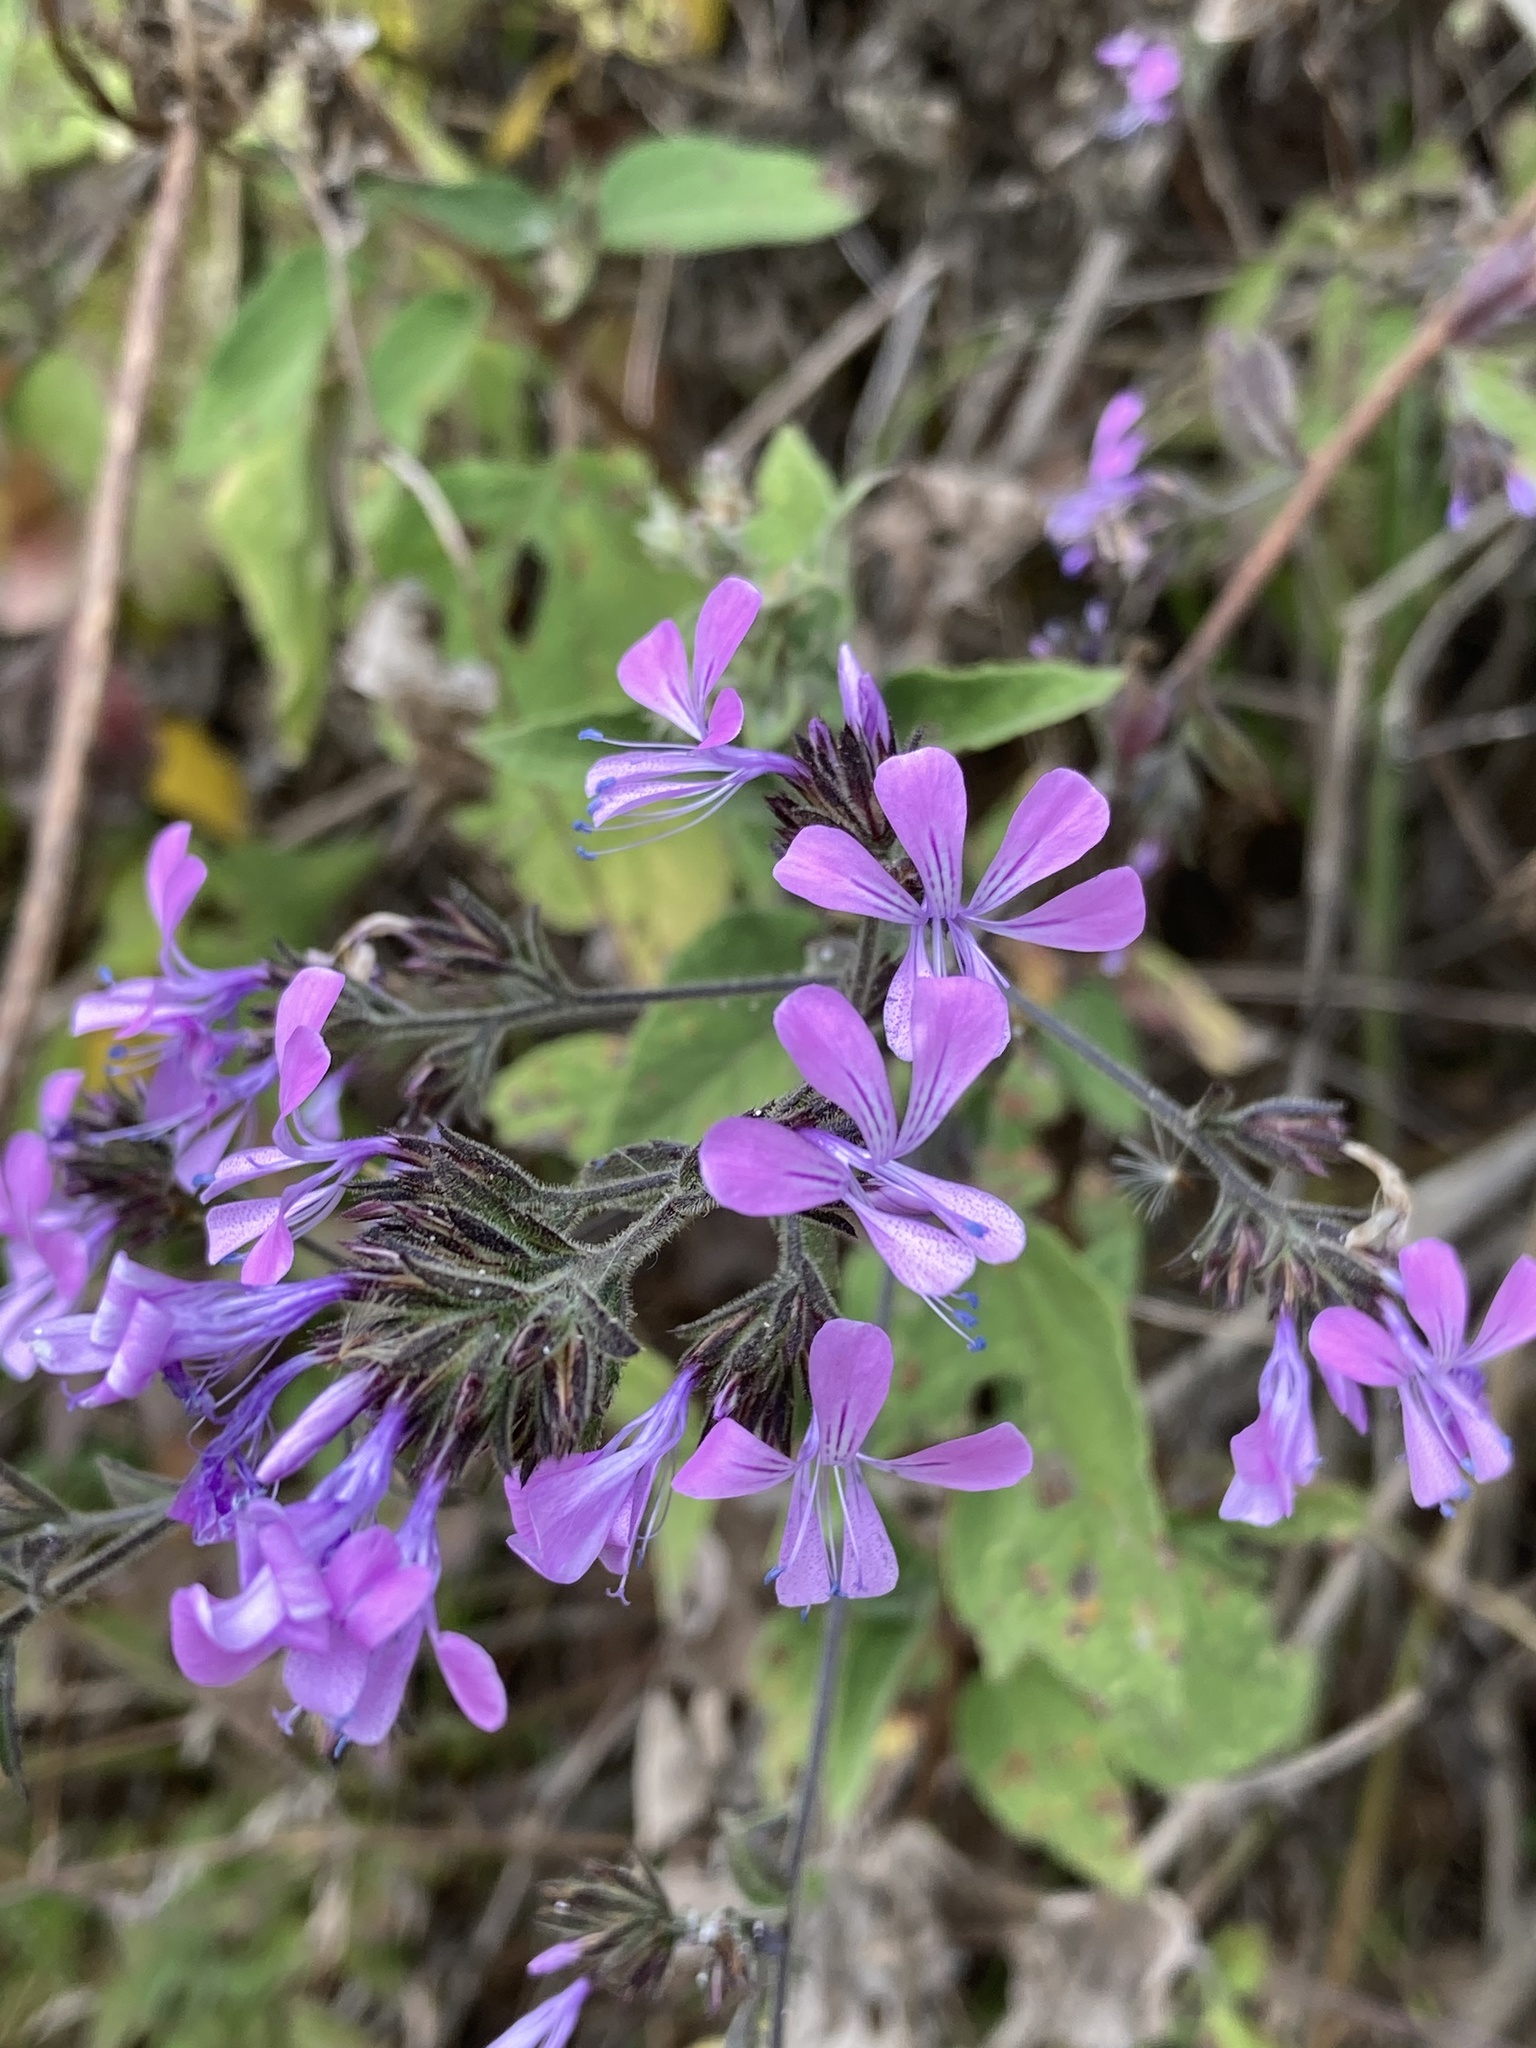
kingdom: Plantae
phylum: Tracheophyta
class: Magnoliopsida
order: Ericales
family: Polemoniaceae
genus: Loeselia
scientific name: Loeselia glandulosa
